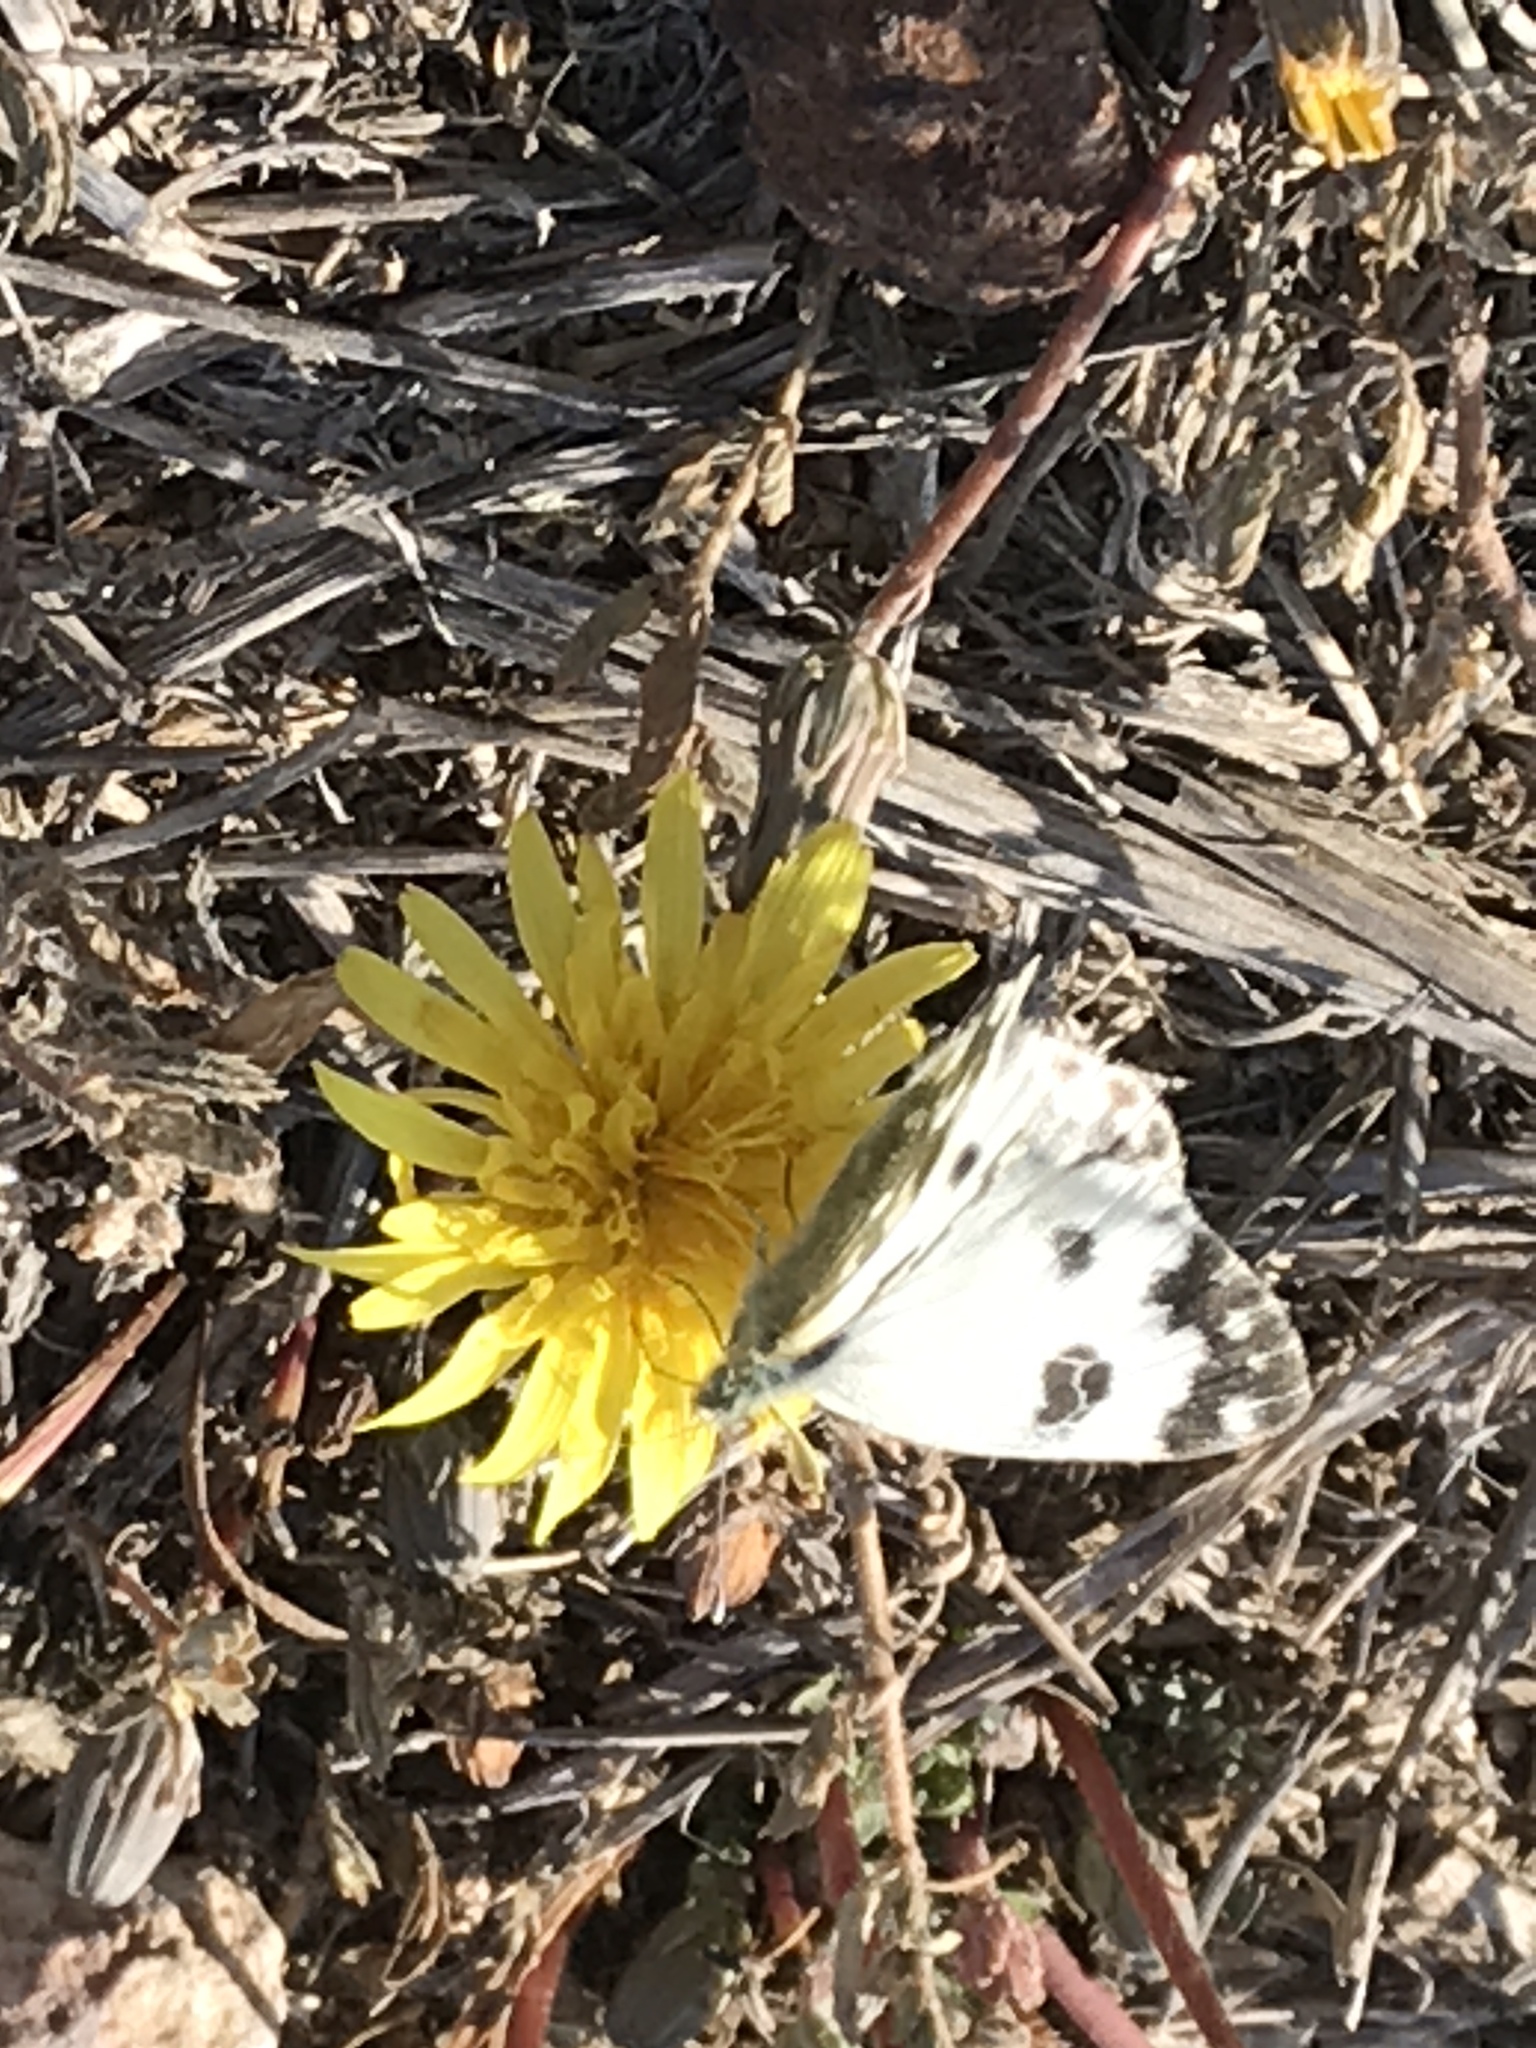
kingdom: Animalia
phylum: Arthropoda
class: Insecta
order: Lepidoptera
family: Pieridae
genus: Pontia
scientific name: Pontia edusa
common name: Eastern bath white
